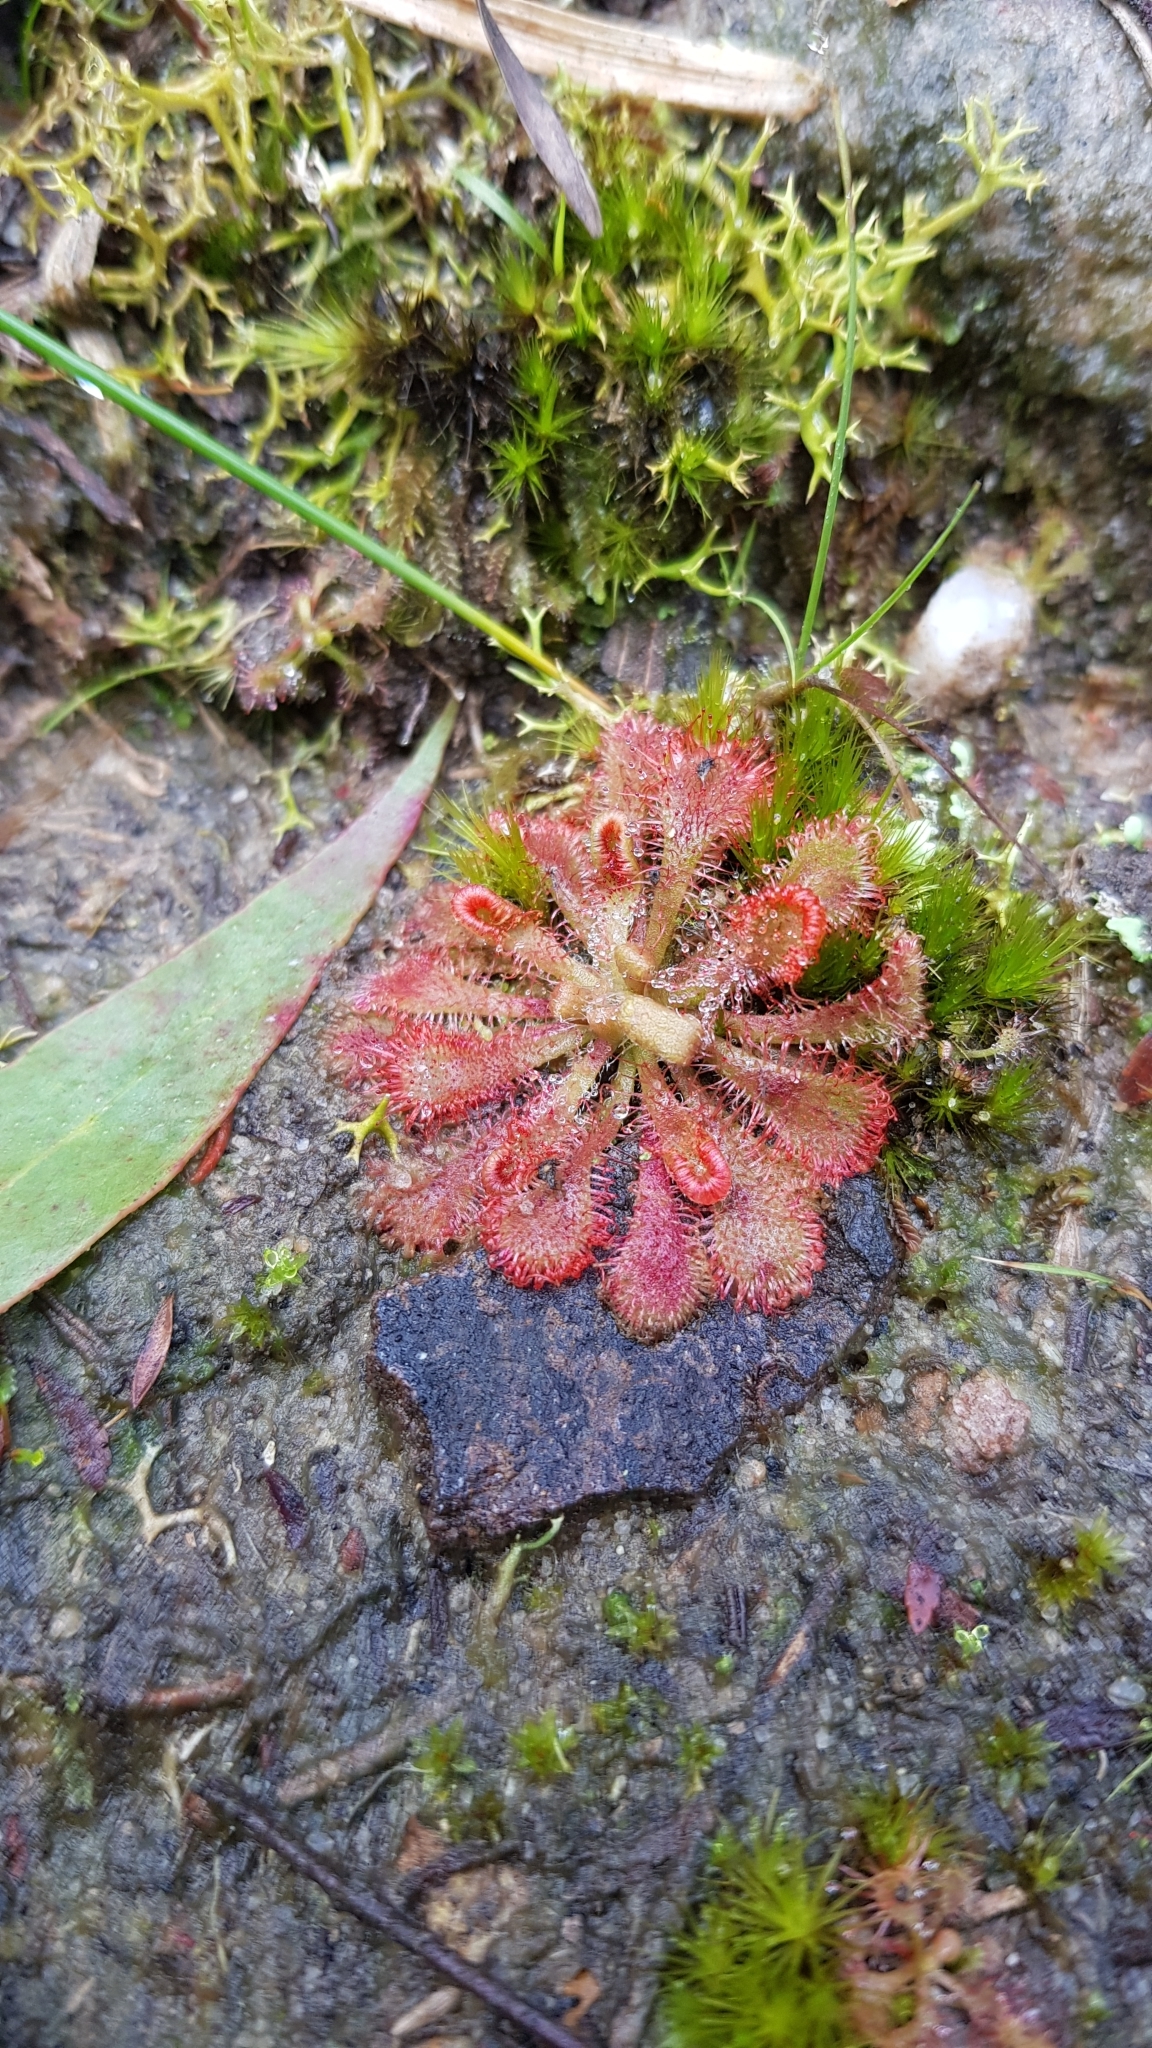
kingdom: Plantae
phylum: Tracheophyta
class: Magnoliopsida
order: Caryophyllales
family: Droseraceae
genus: Drosera
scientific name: Drosera spatulata
